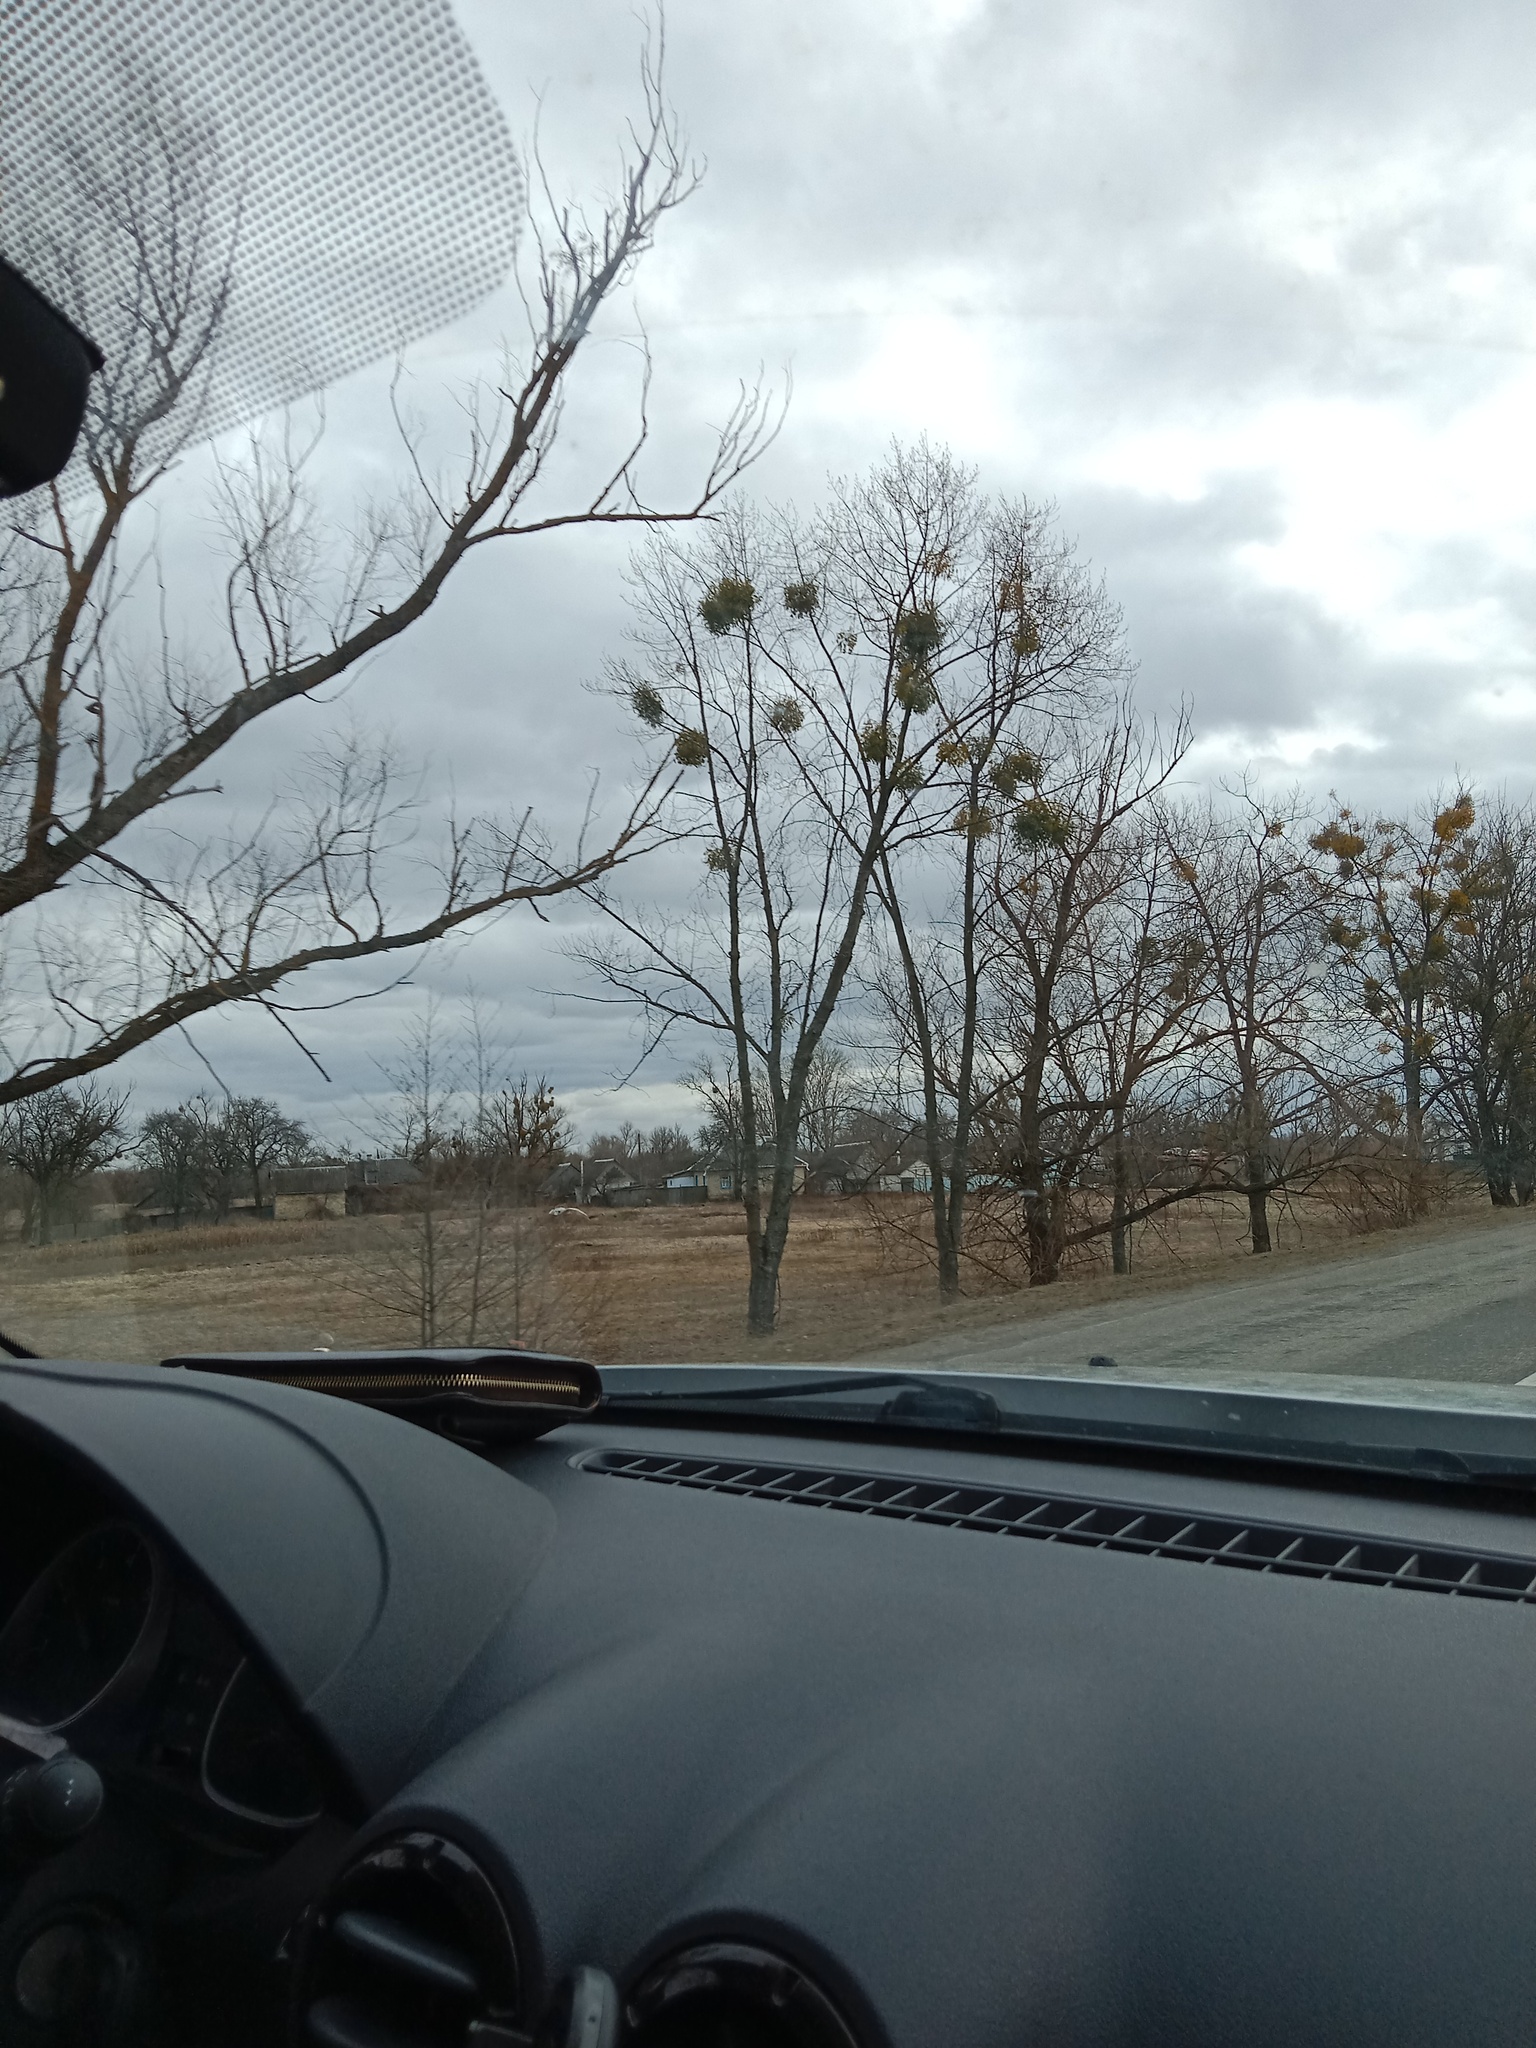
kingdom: Plantae
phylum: Tracheophyta
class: Magnoliopsida
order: Santalales
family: Viscaceae
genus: Viscum
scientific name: Viscum album
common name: Mistletoe
